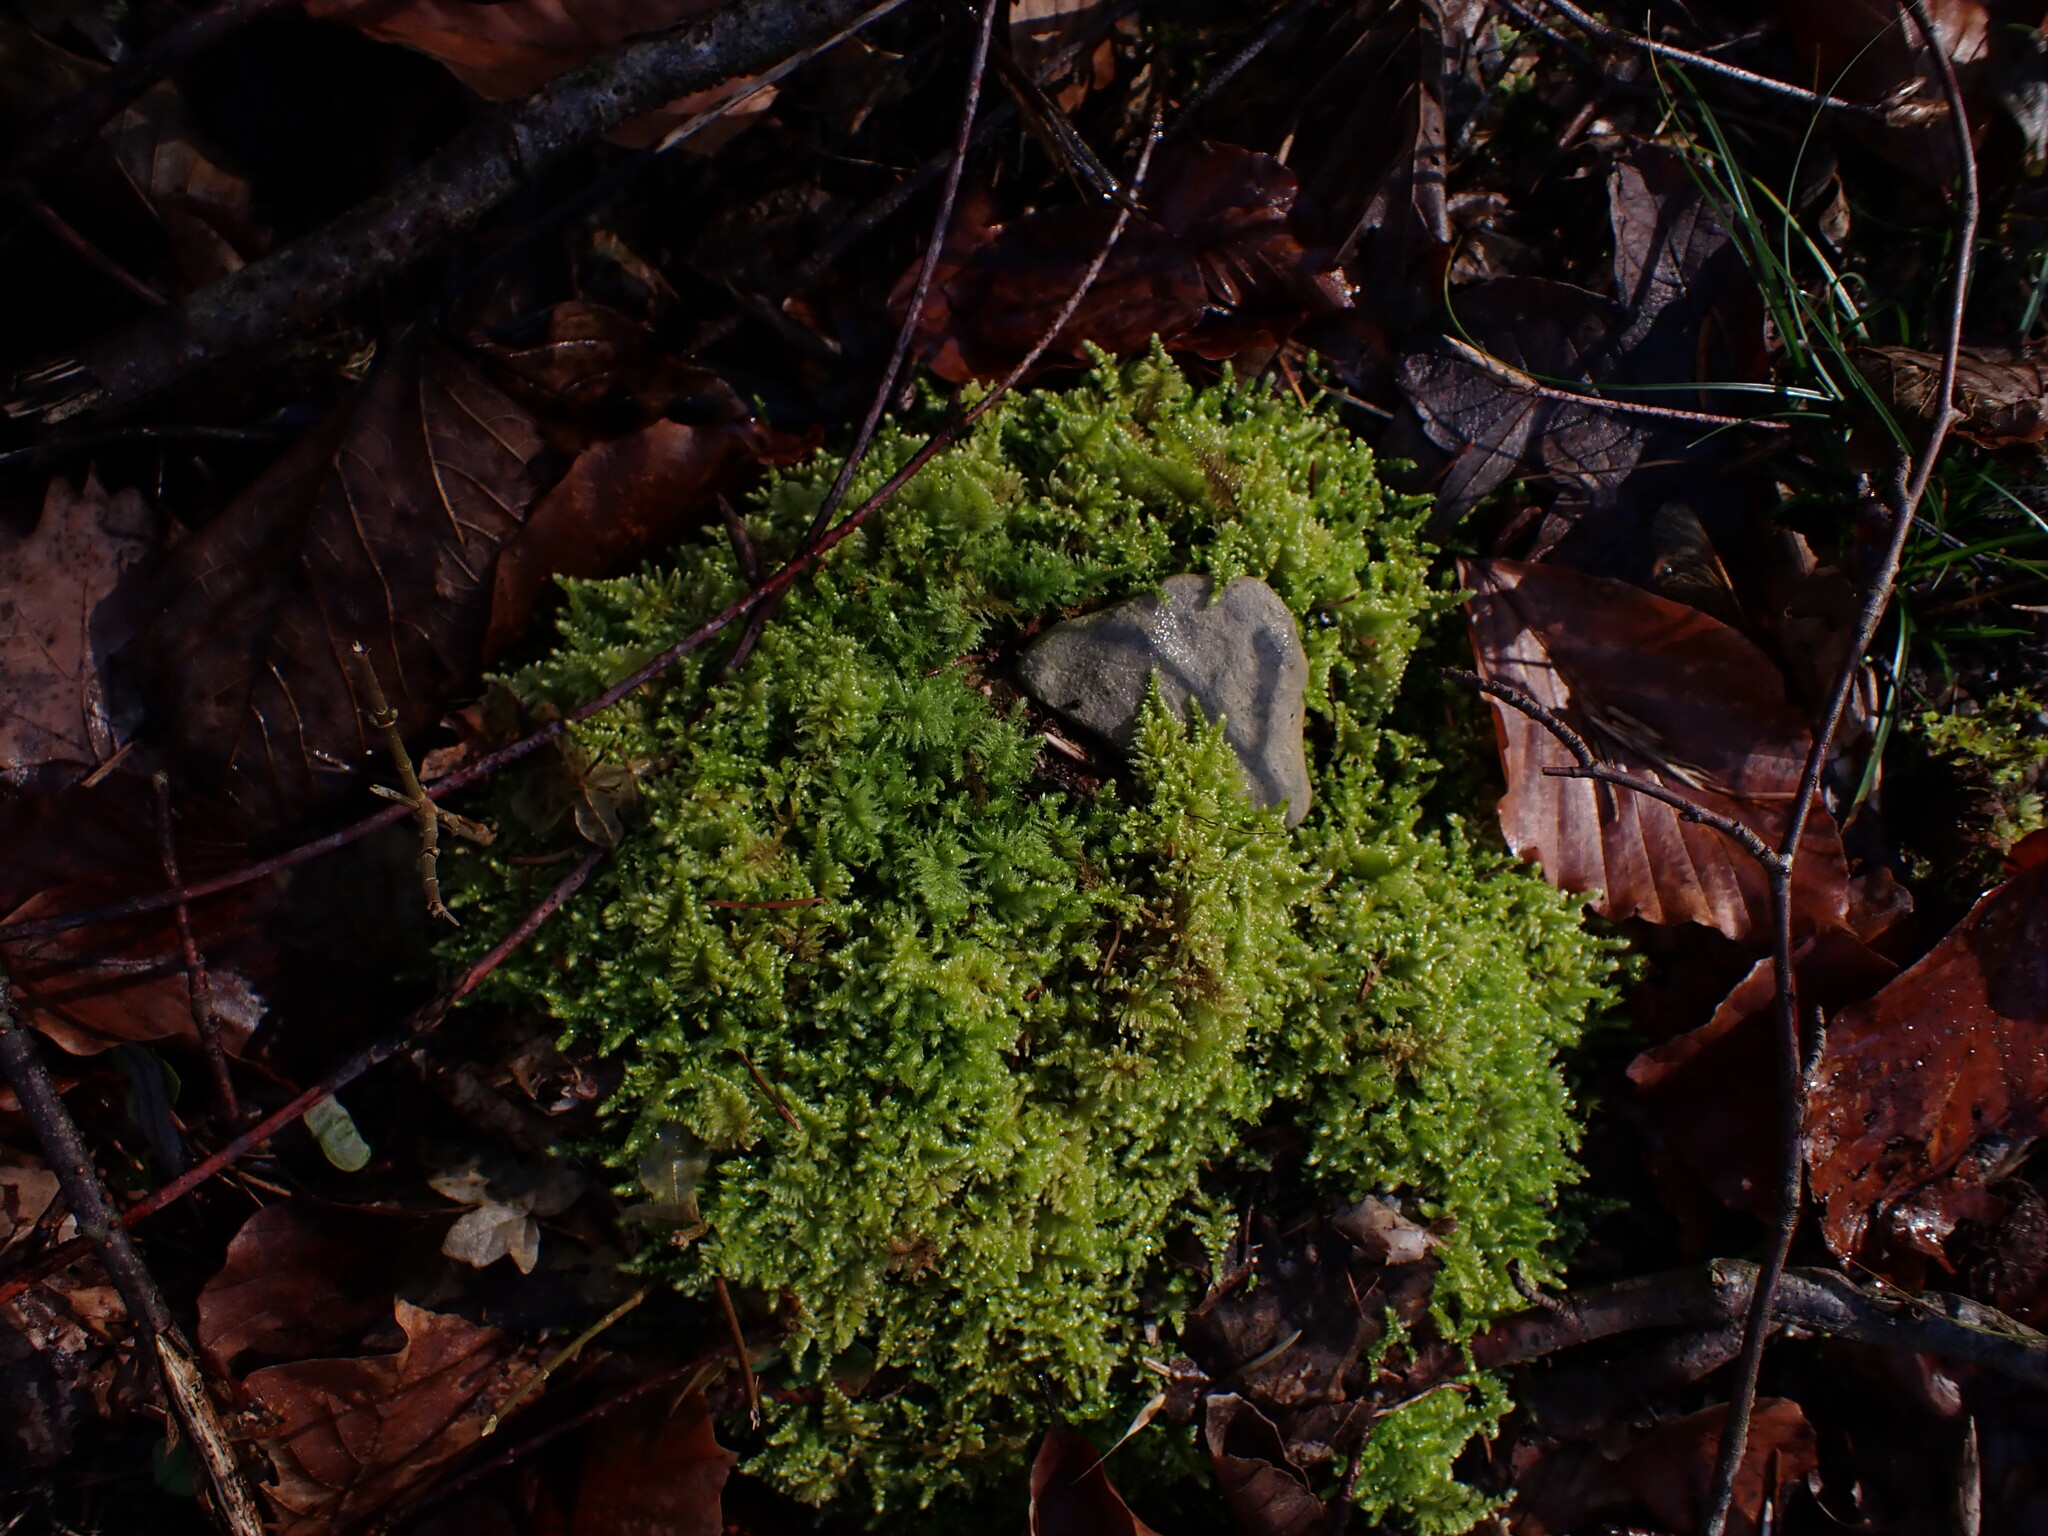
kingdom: Plantae
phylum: Bryophyta
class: Bryopsida
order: Hypnales
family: Myuriaceae
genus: Ctenidium
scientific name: Ctenidium molluscum
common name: Chalk comb-moss
